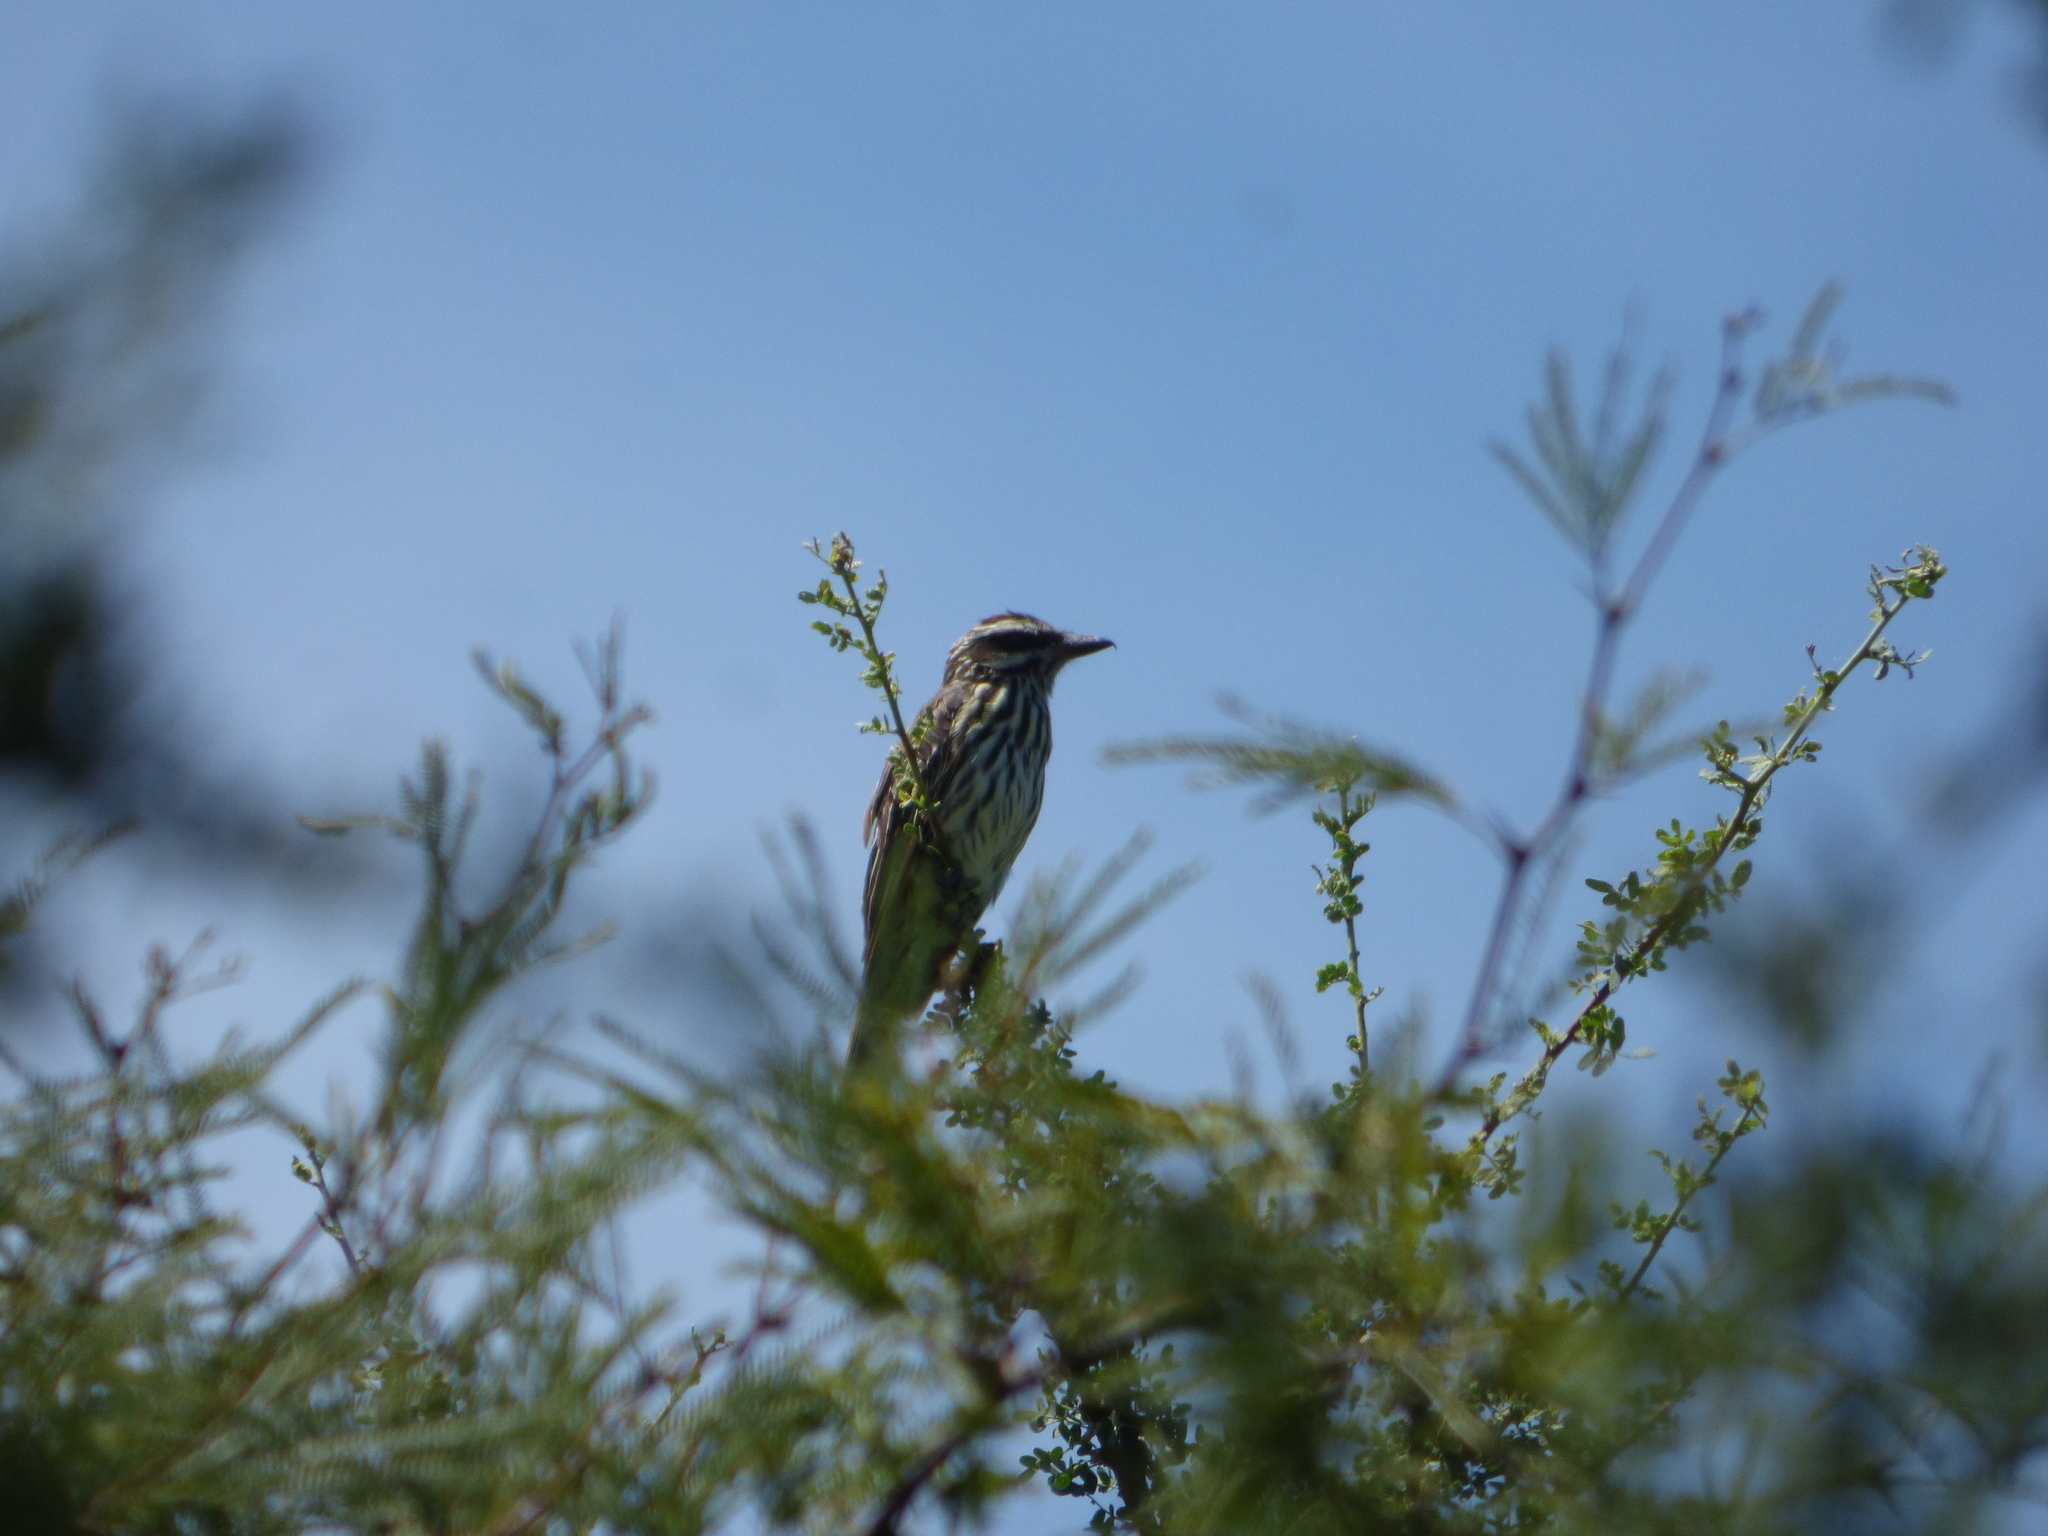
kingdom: Animalia
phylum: Chordata
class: Aves
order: Passeriformes
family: Tyrannidae
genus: Myiodynastes
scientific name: Myiodynastes maculatus
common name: Streaked flycatcher
